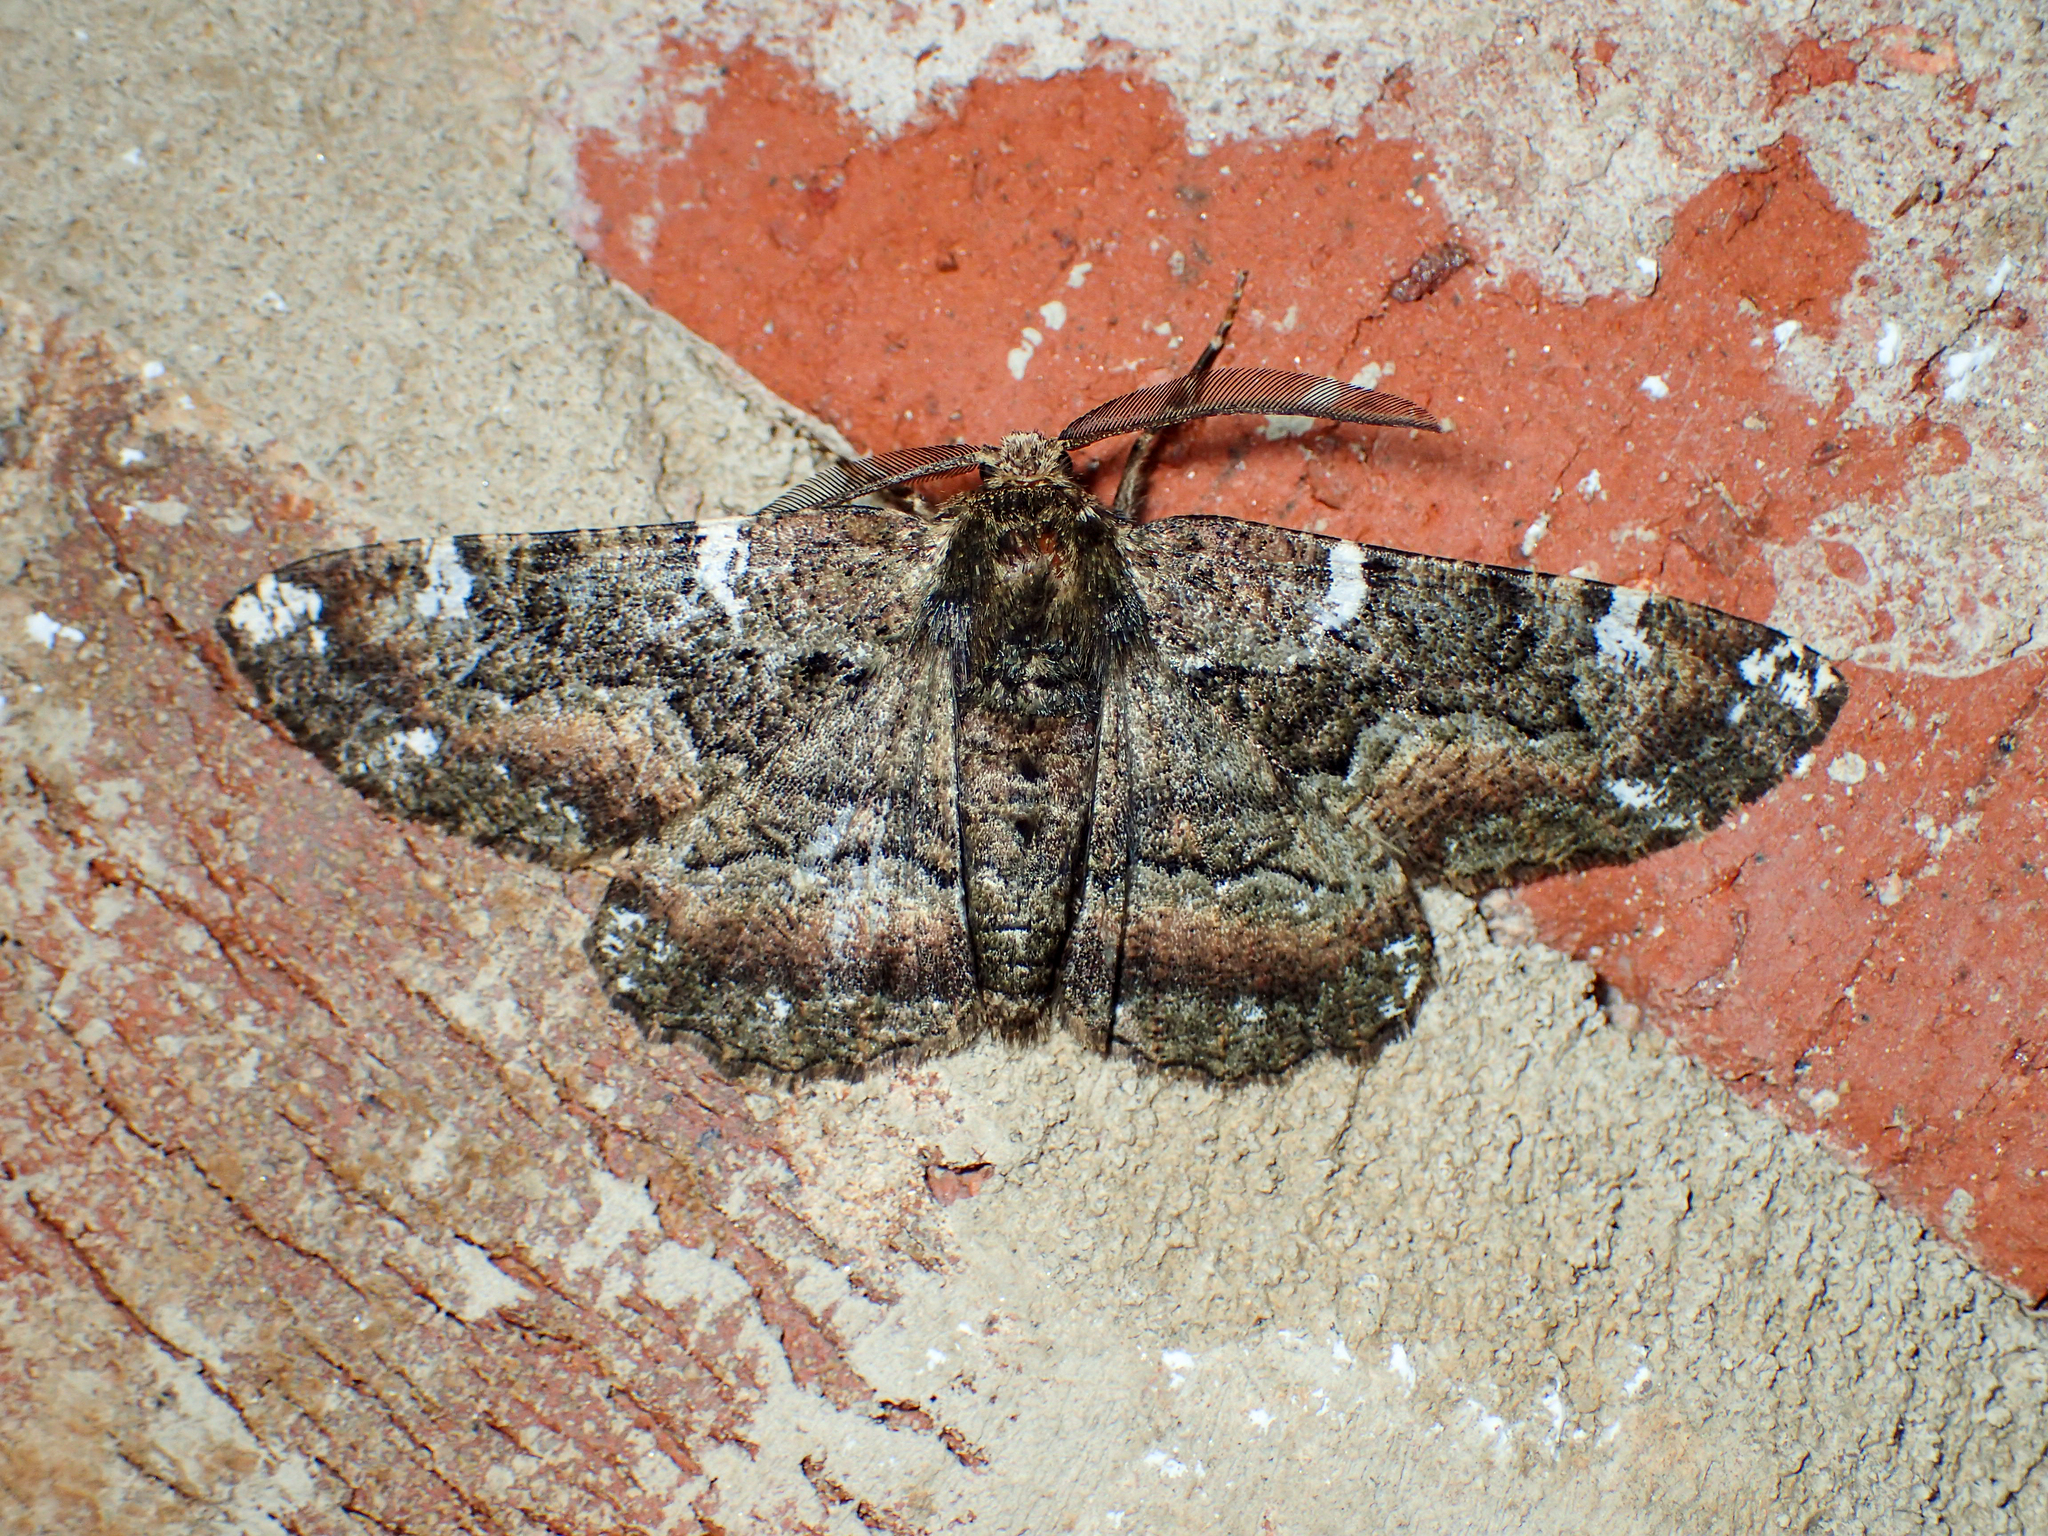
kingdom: Animalia
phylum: Arthropoda
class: Insecta
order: Lepidoptera
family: Geometridae
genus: Phaeoura
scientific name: Phaeoura quernaria
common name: Oak beauty
